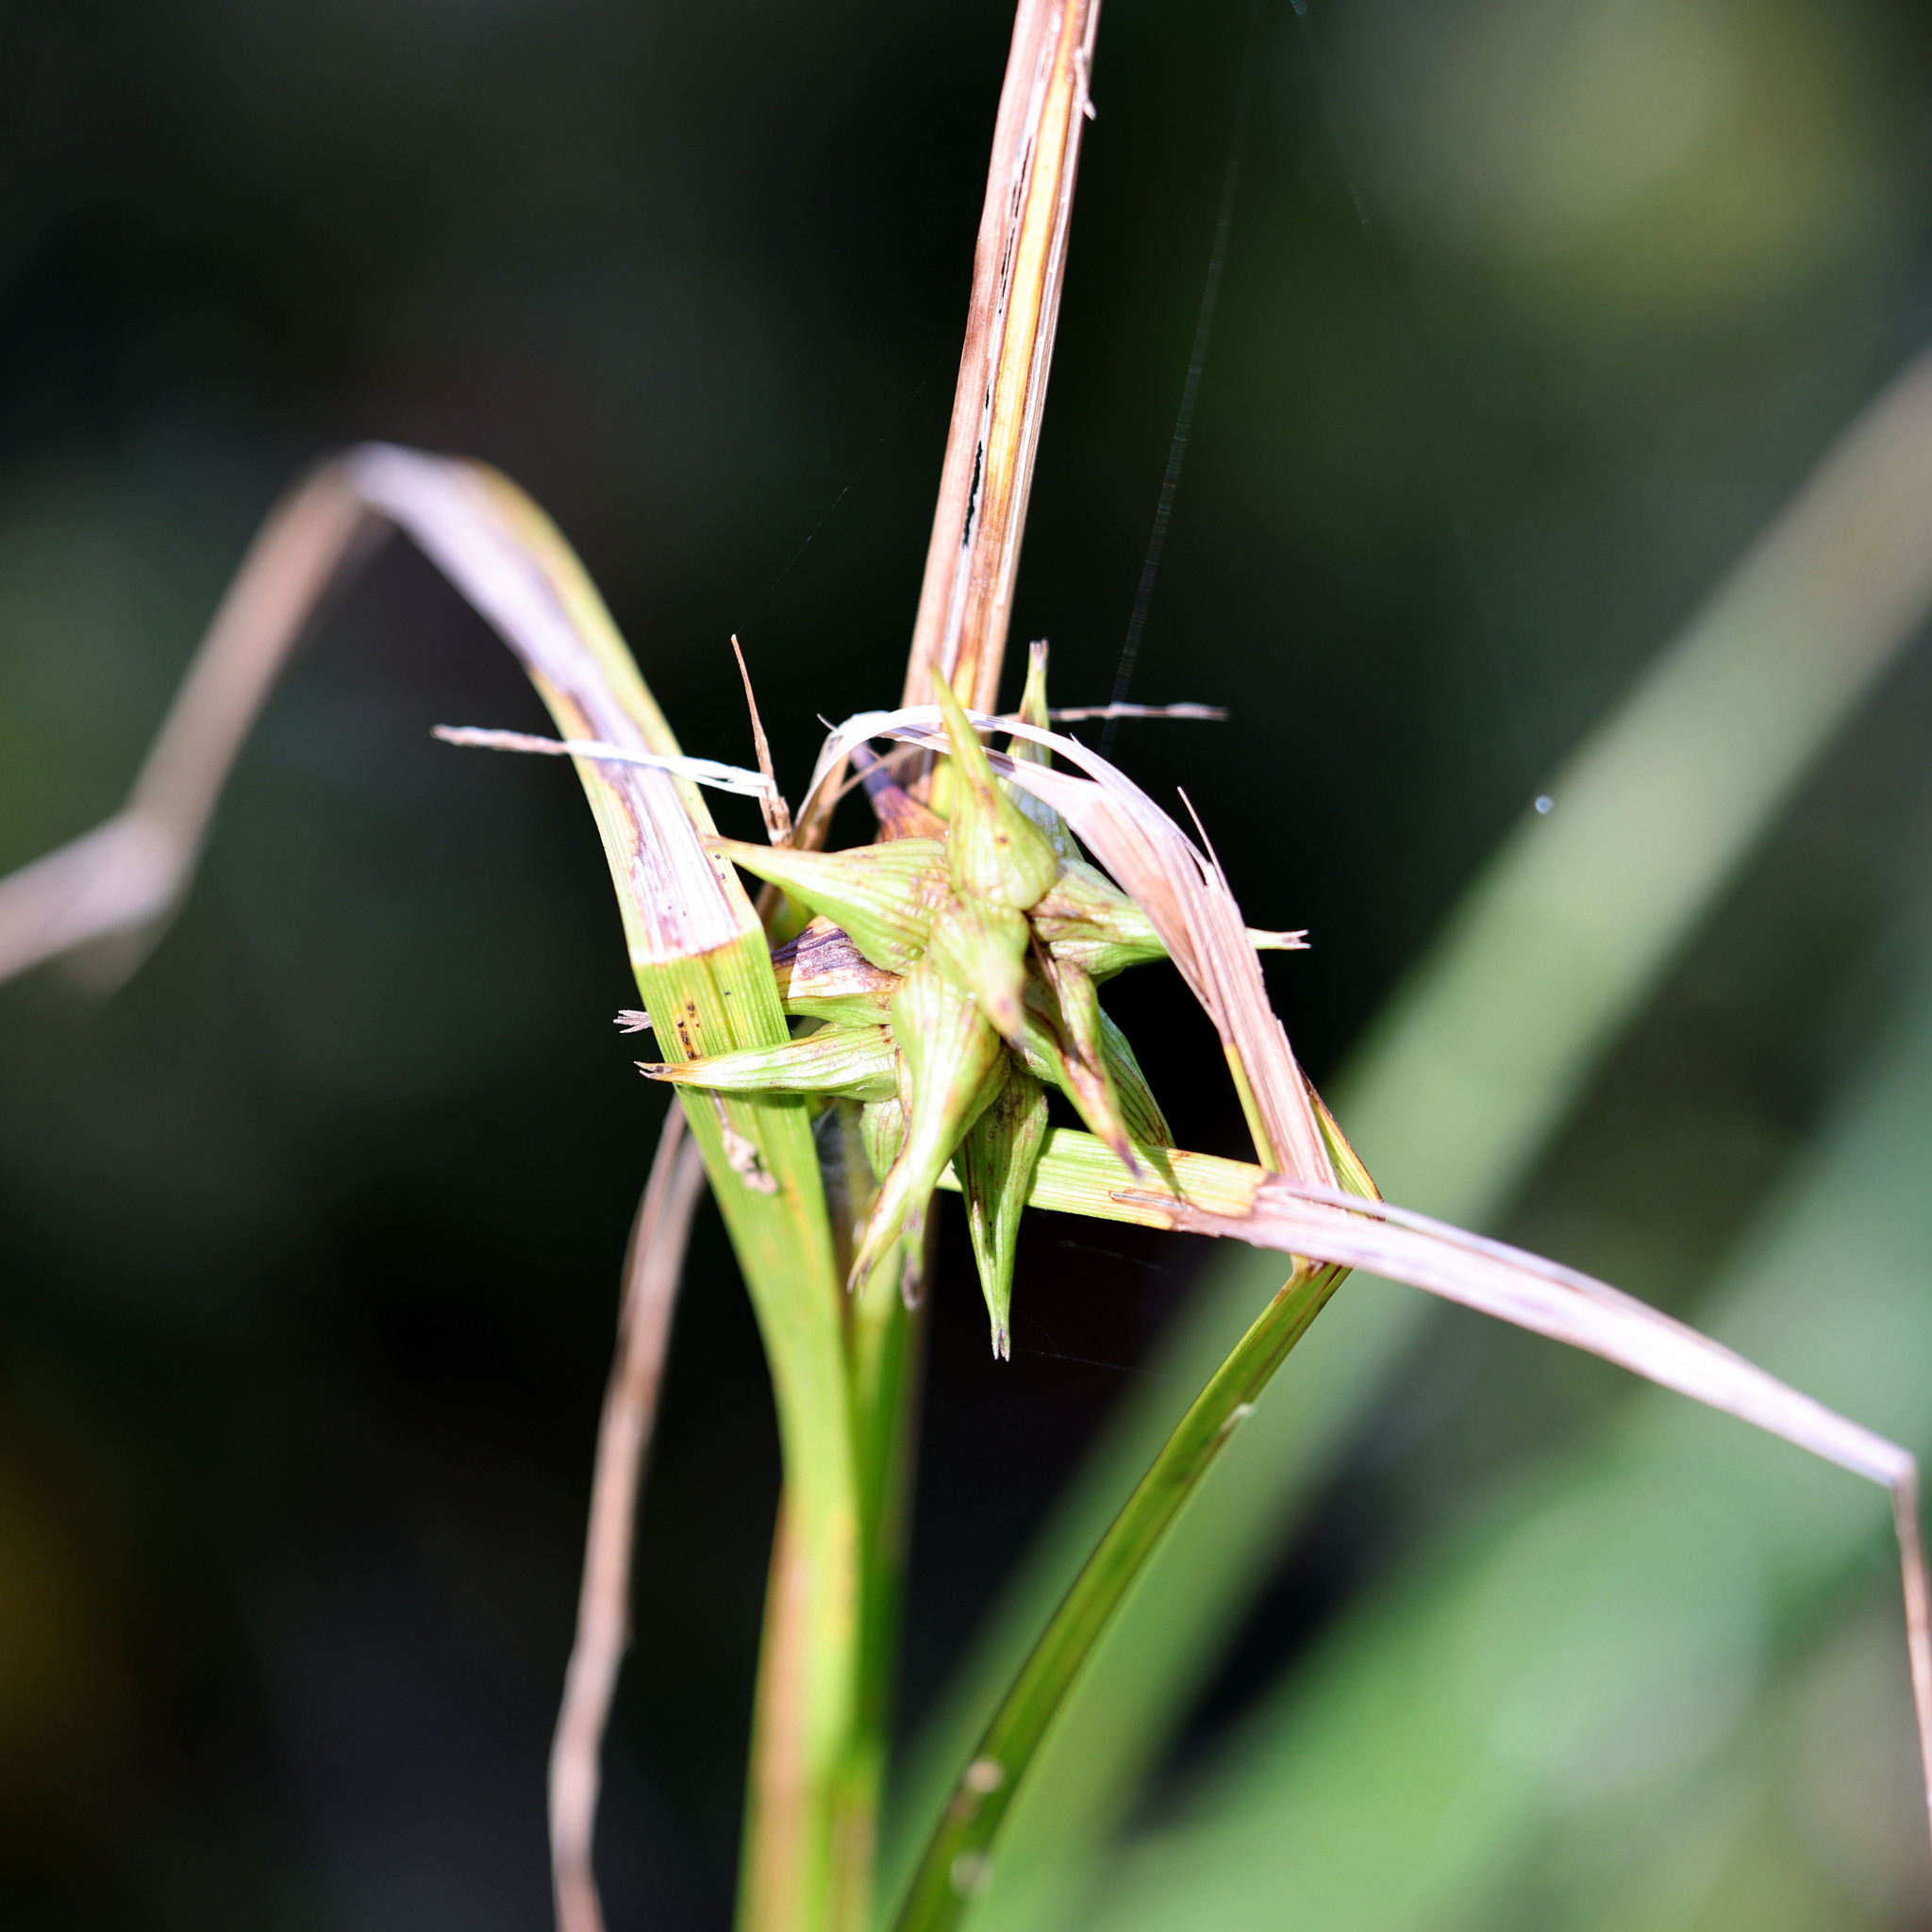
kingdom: Plantae
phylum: Tracheophyta
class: Liliopsida
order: Poales
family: Cyperaceae
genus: Carex
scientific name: Carex grayi
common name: Asa gray's sedge
